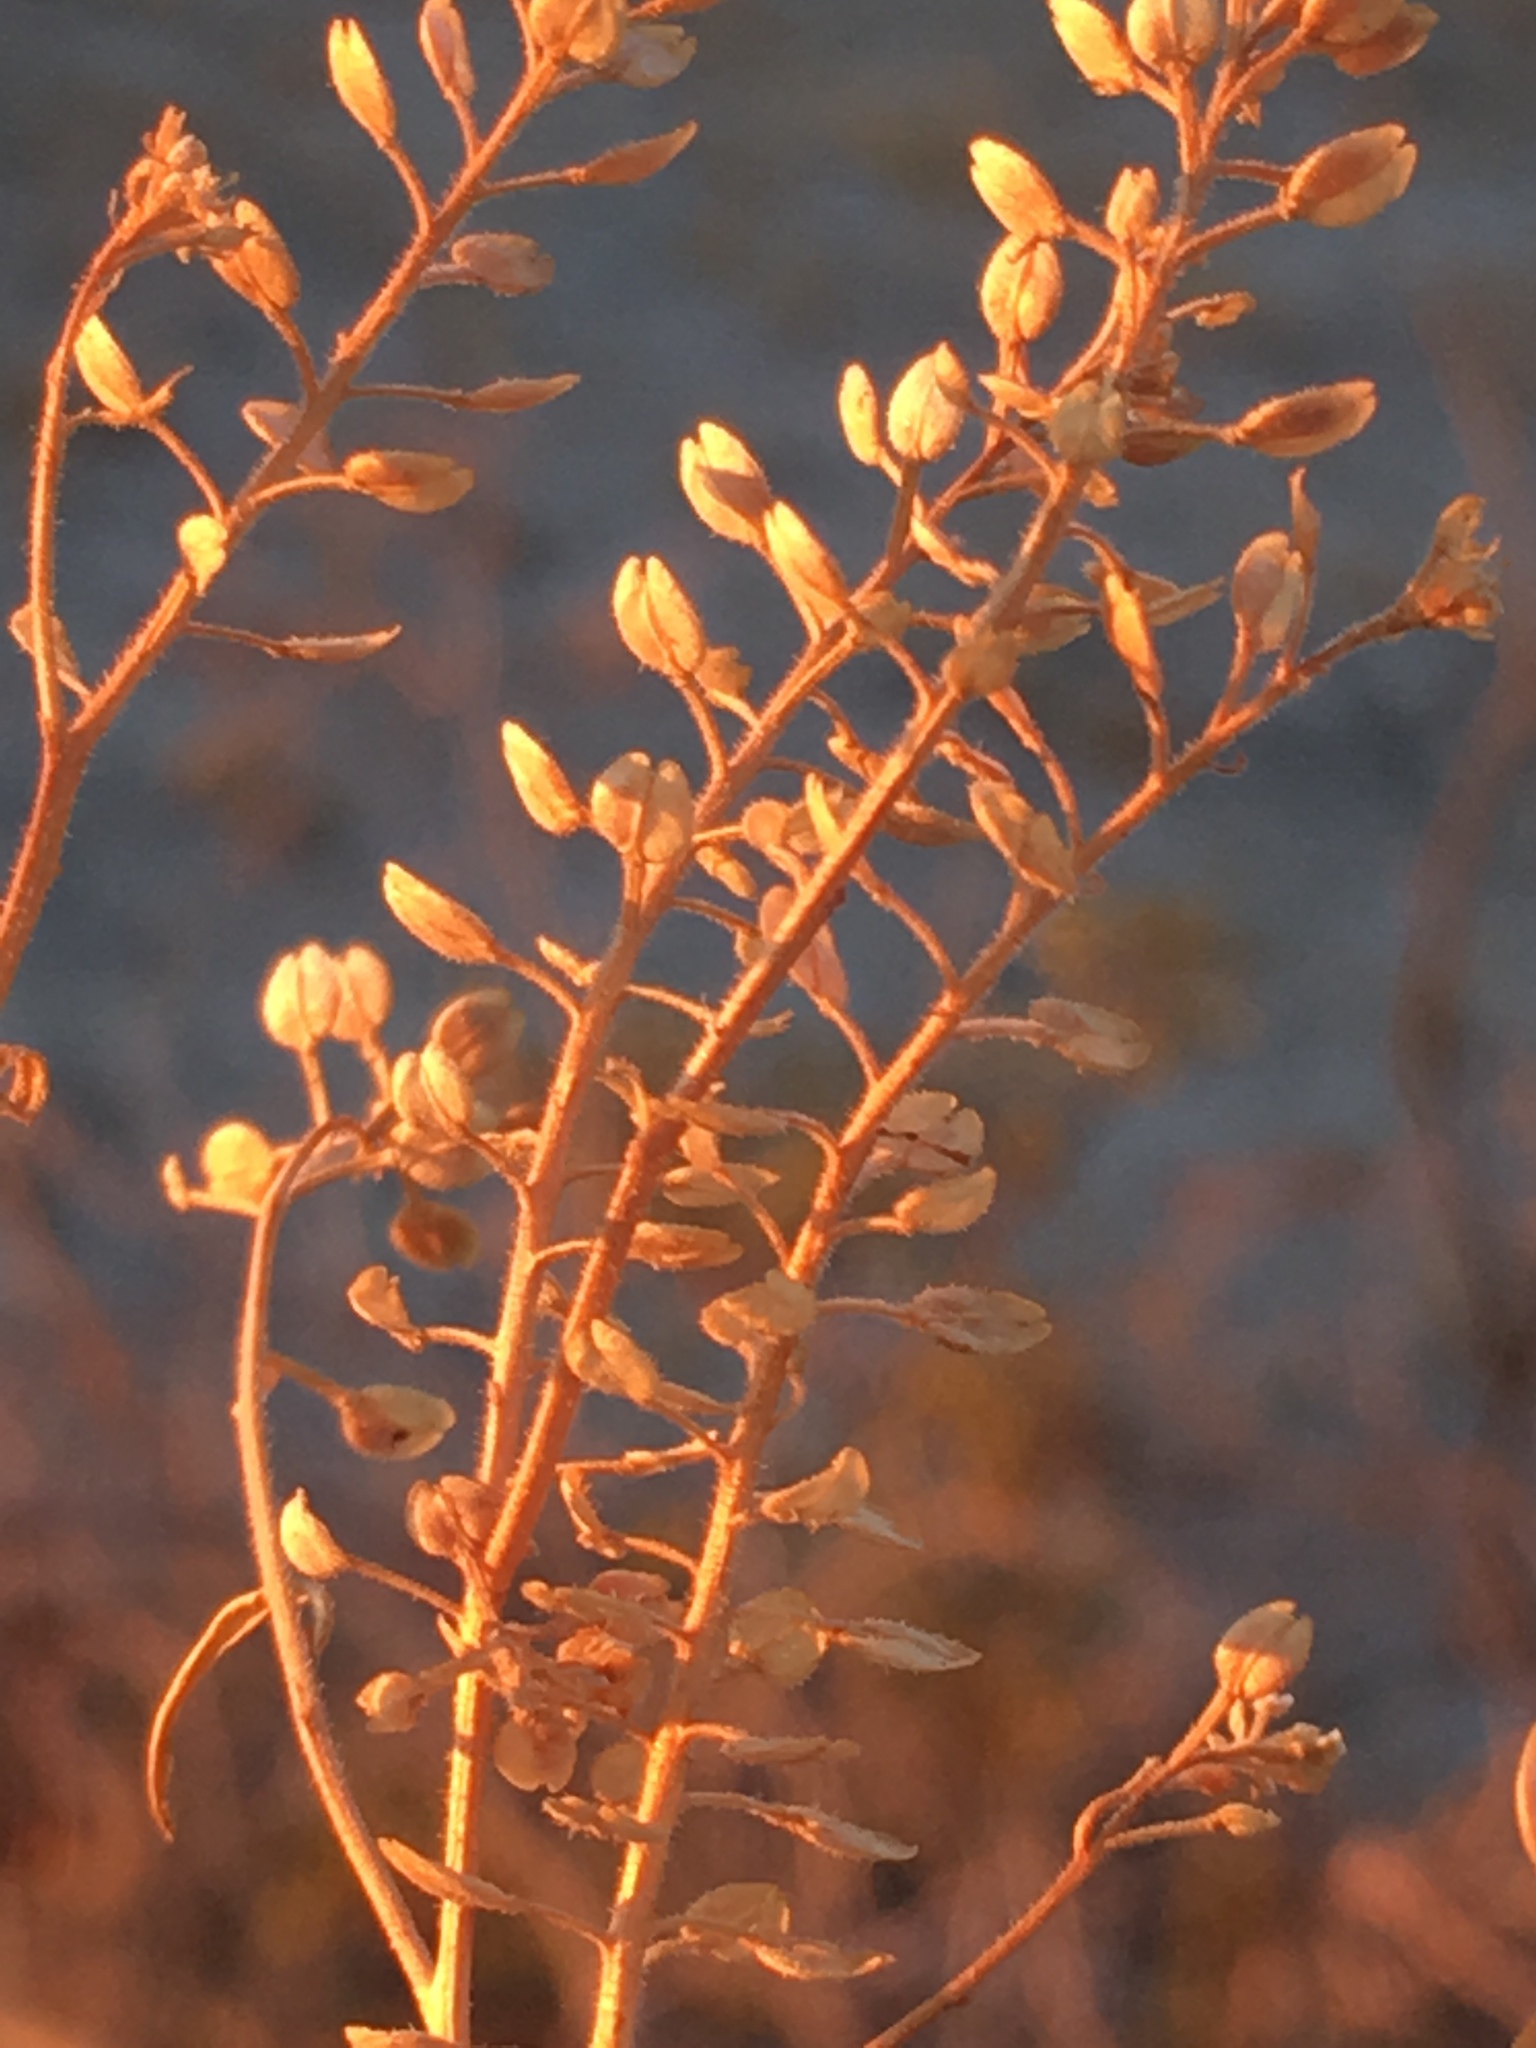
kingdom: Plantae
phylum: Tracheophyta
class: Magnoliopsida
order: Brassicales
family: Brassicaceae
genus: Lepidium
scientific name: Lepidium lasiocarpum
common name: Hairy-pod pepperwort
